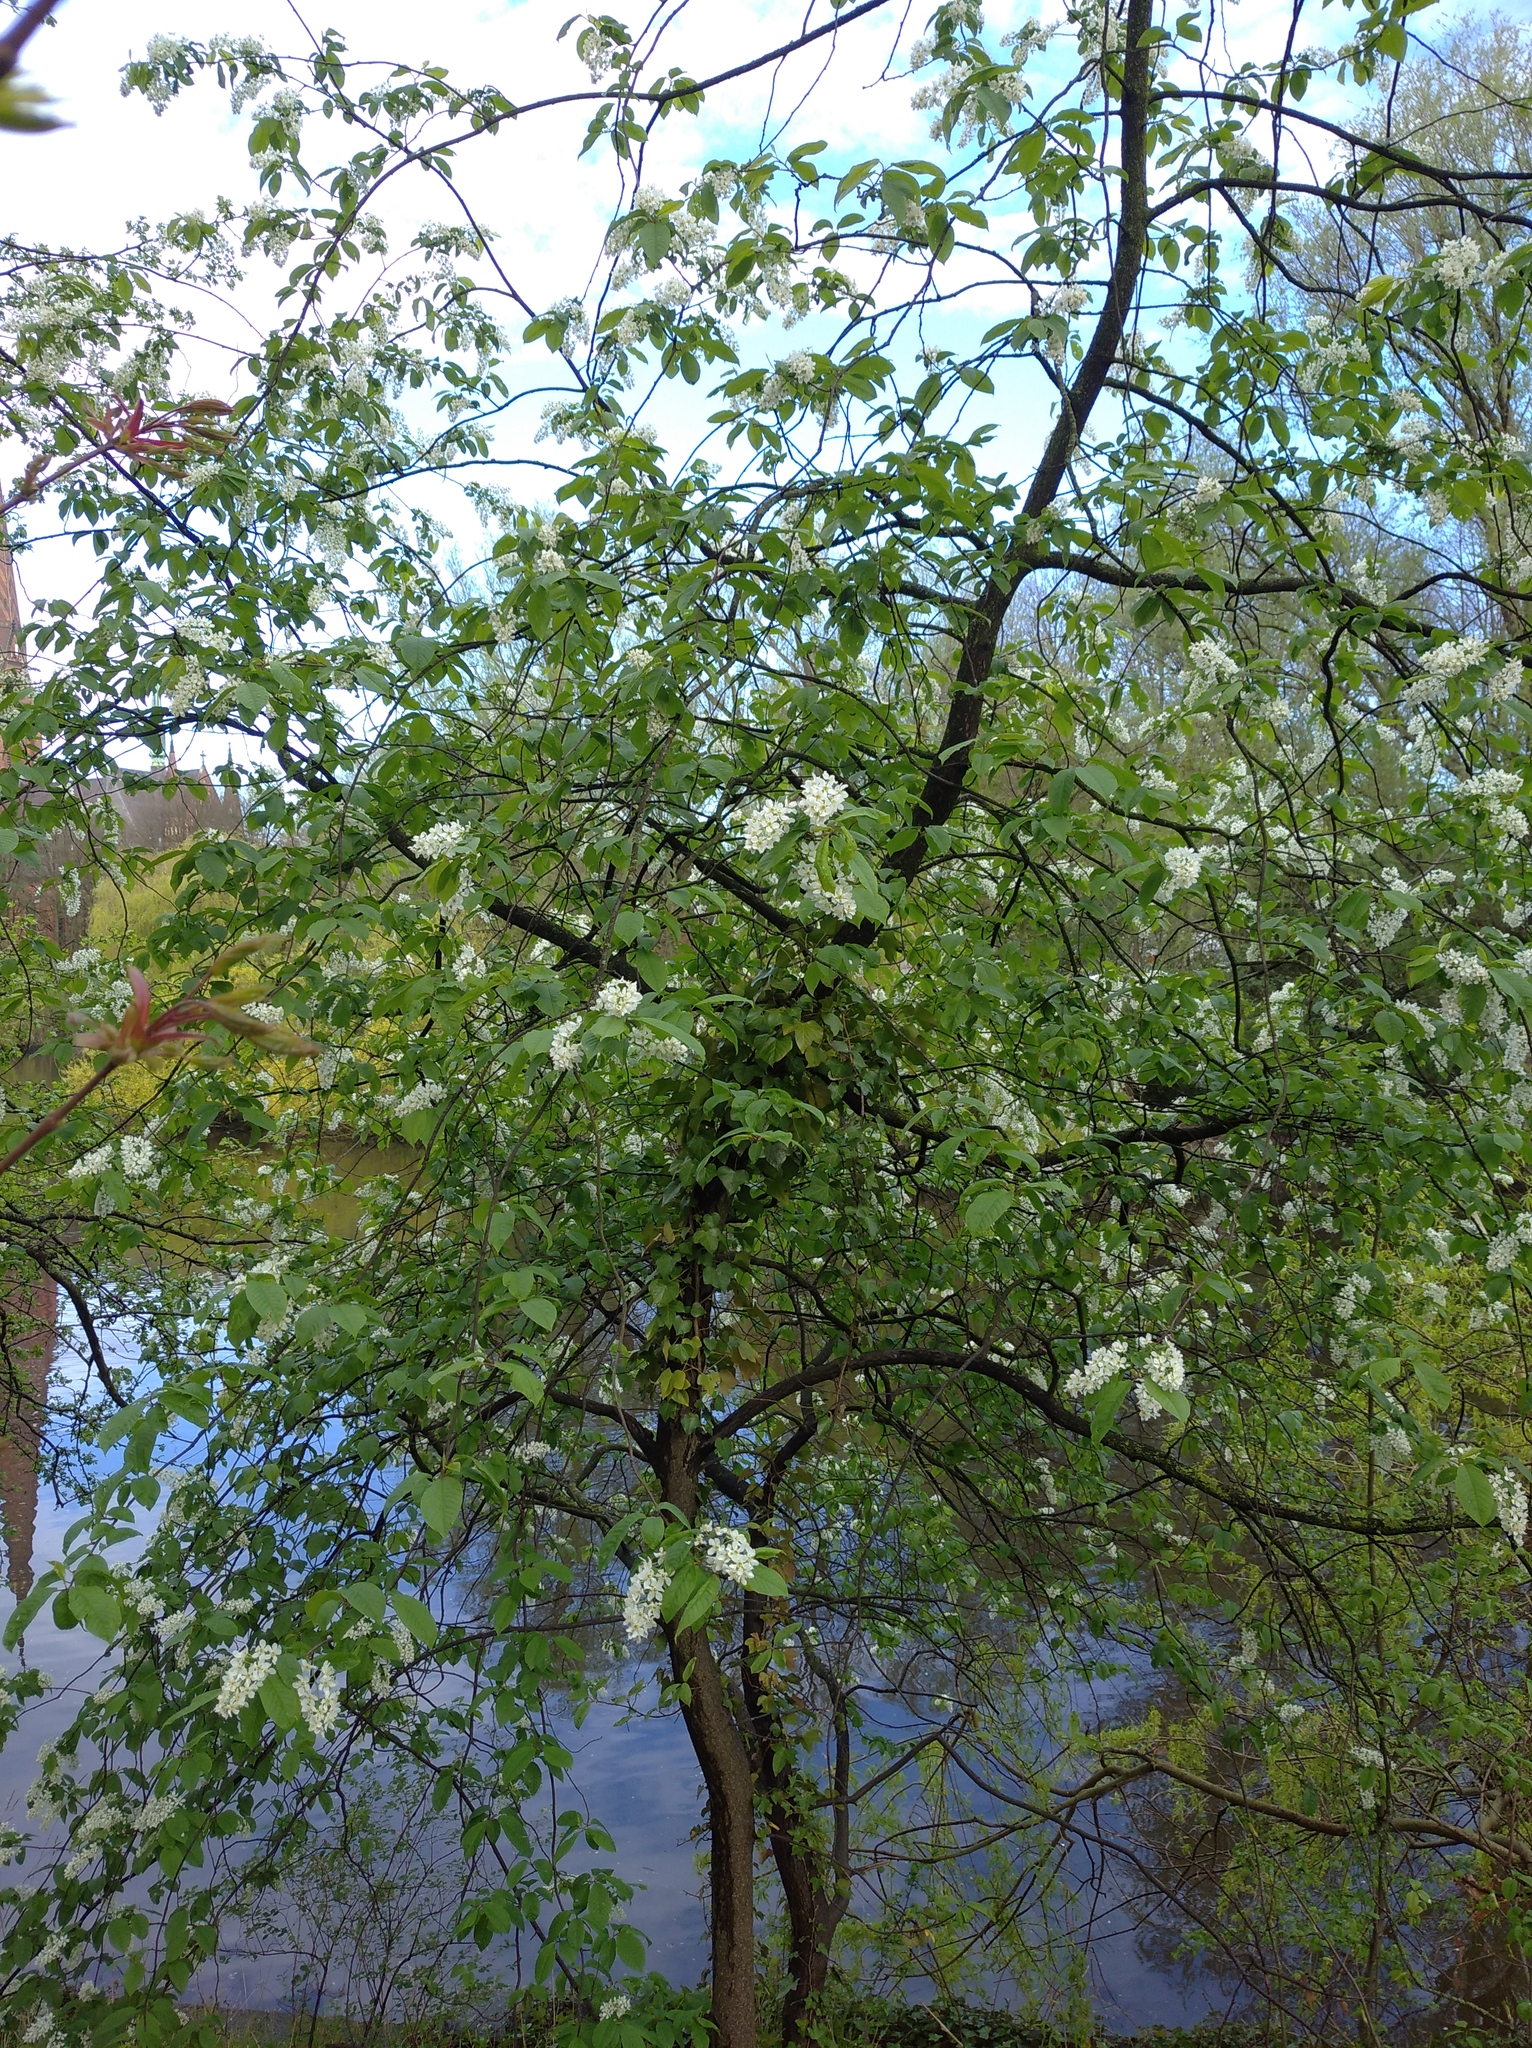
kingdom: Plantae
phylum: Tracheophyta
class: Magnoliopsida
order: Rosales
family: Rosaceae
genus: Prunus
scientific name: Prunus padus
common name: Bird cherry
